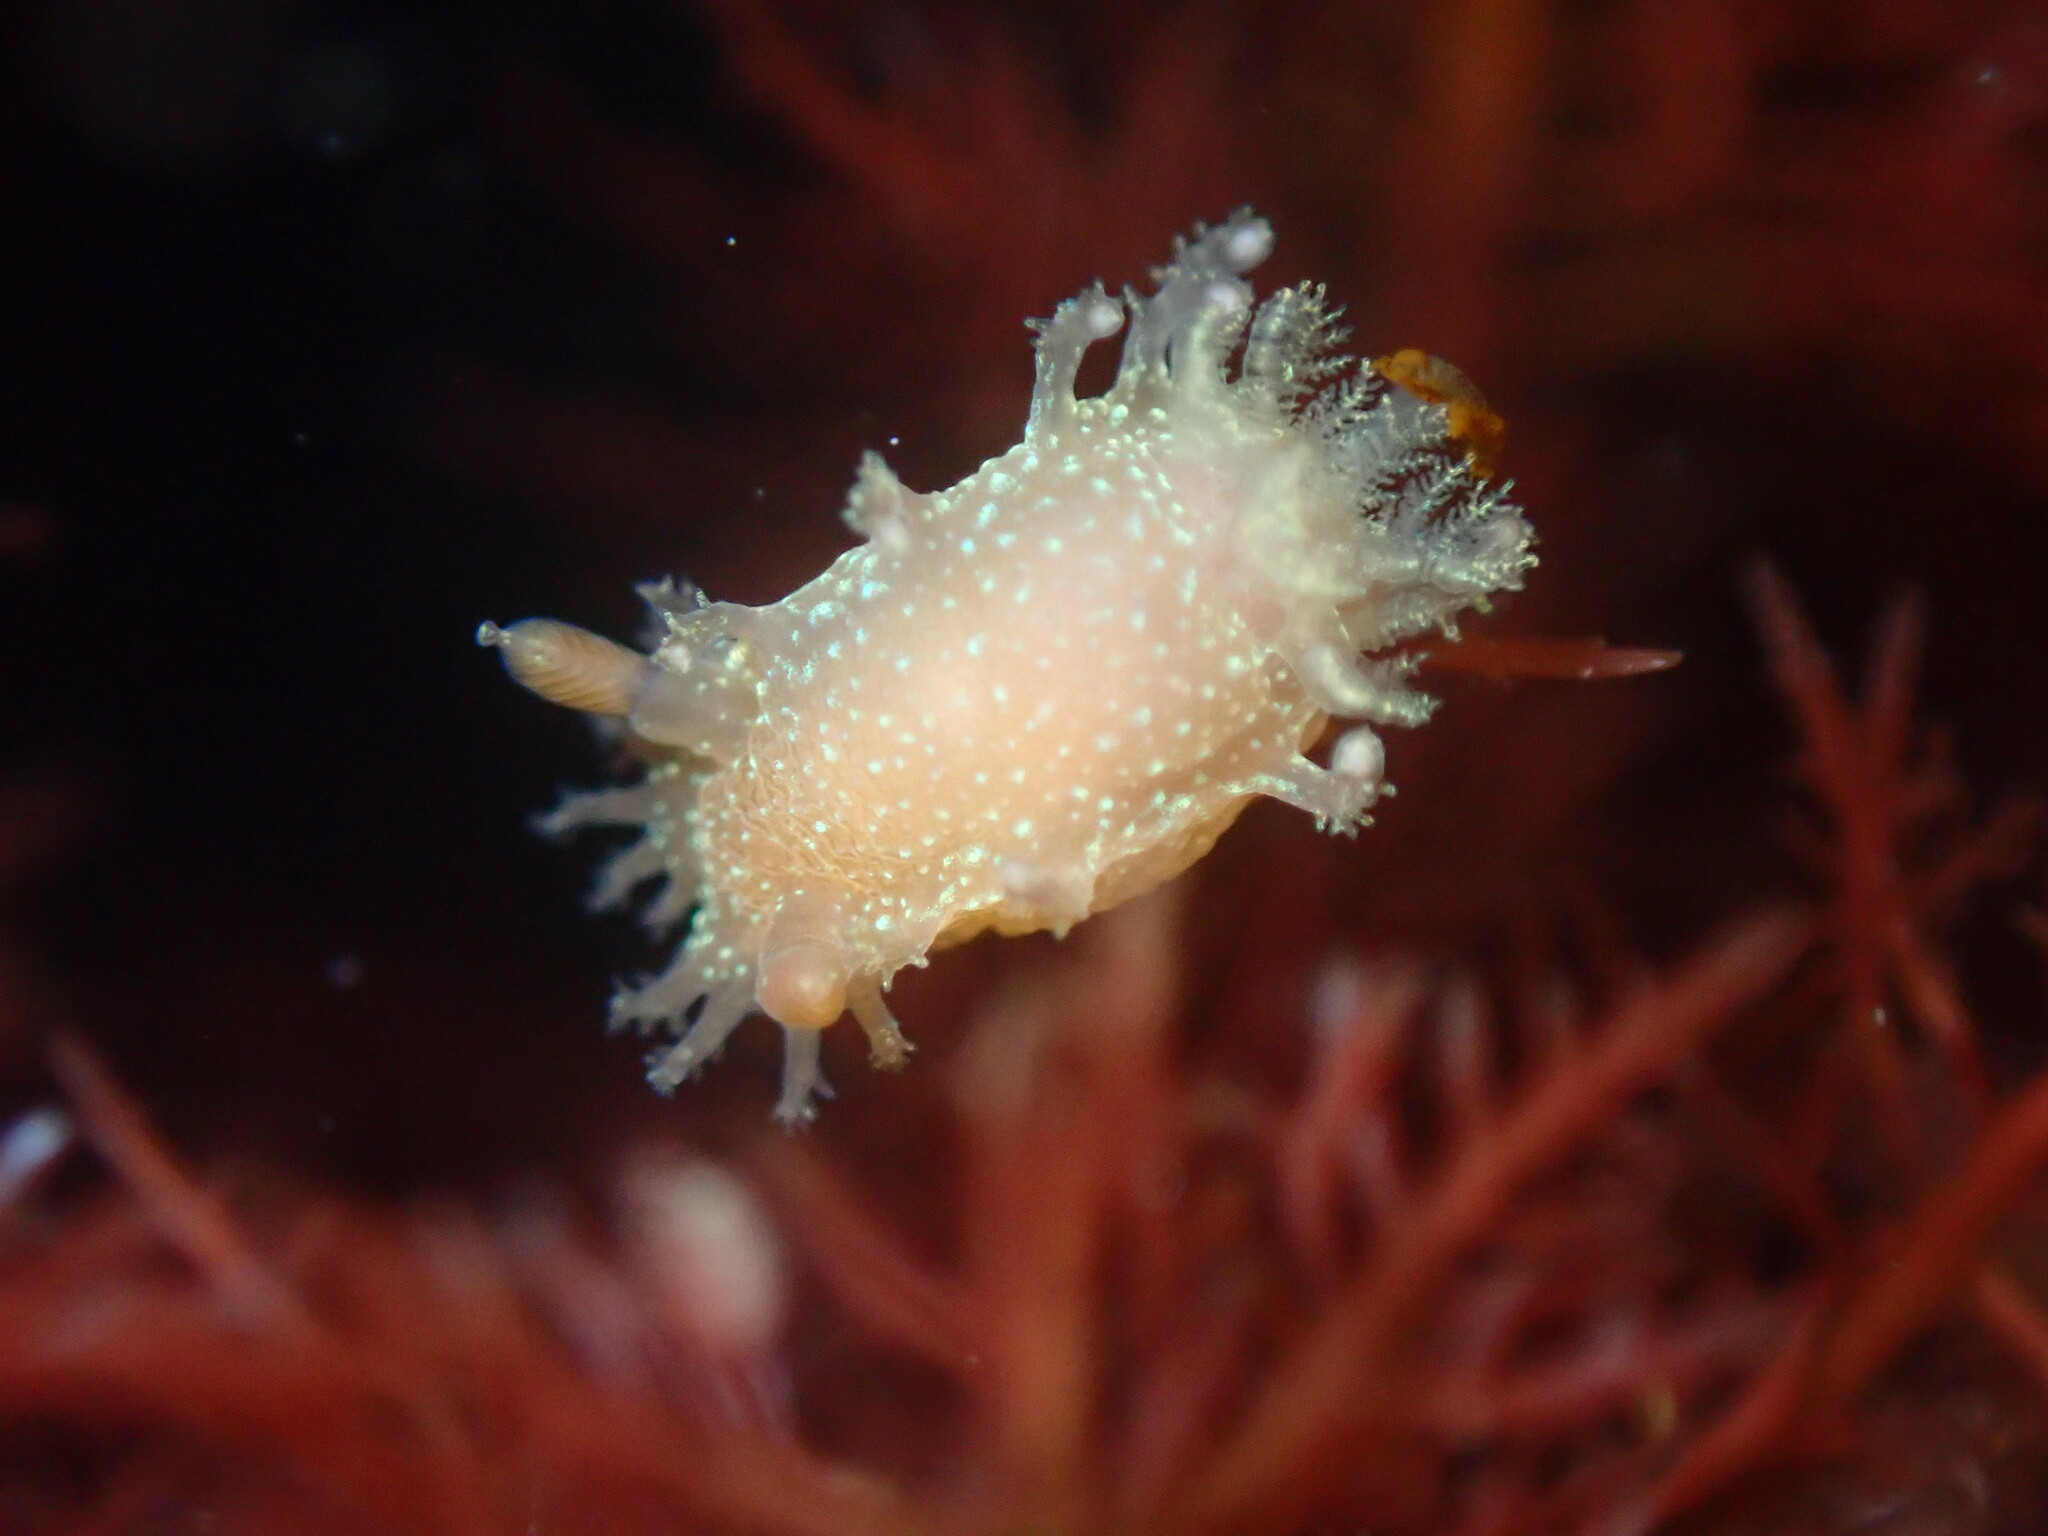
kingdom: Animalia
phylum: Mollusca
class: Gastropoda
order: Nudibranchia
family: Polyceridae
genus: Triopha
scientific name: Triopha maculata
